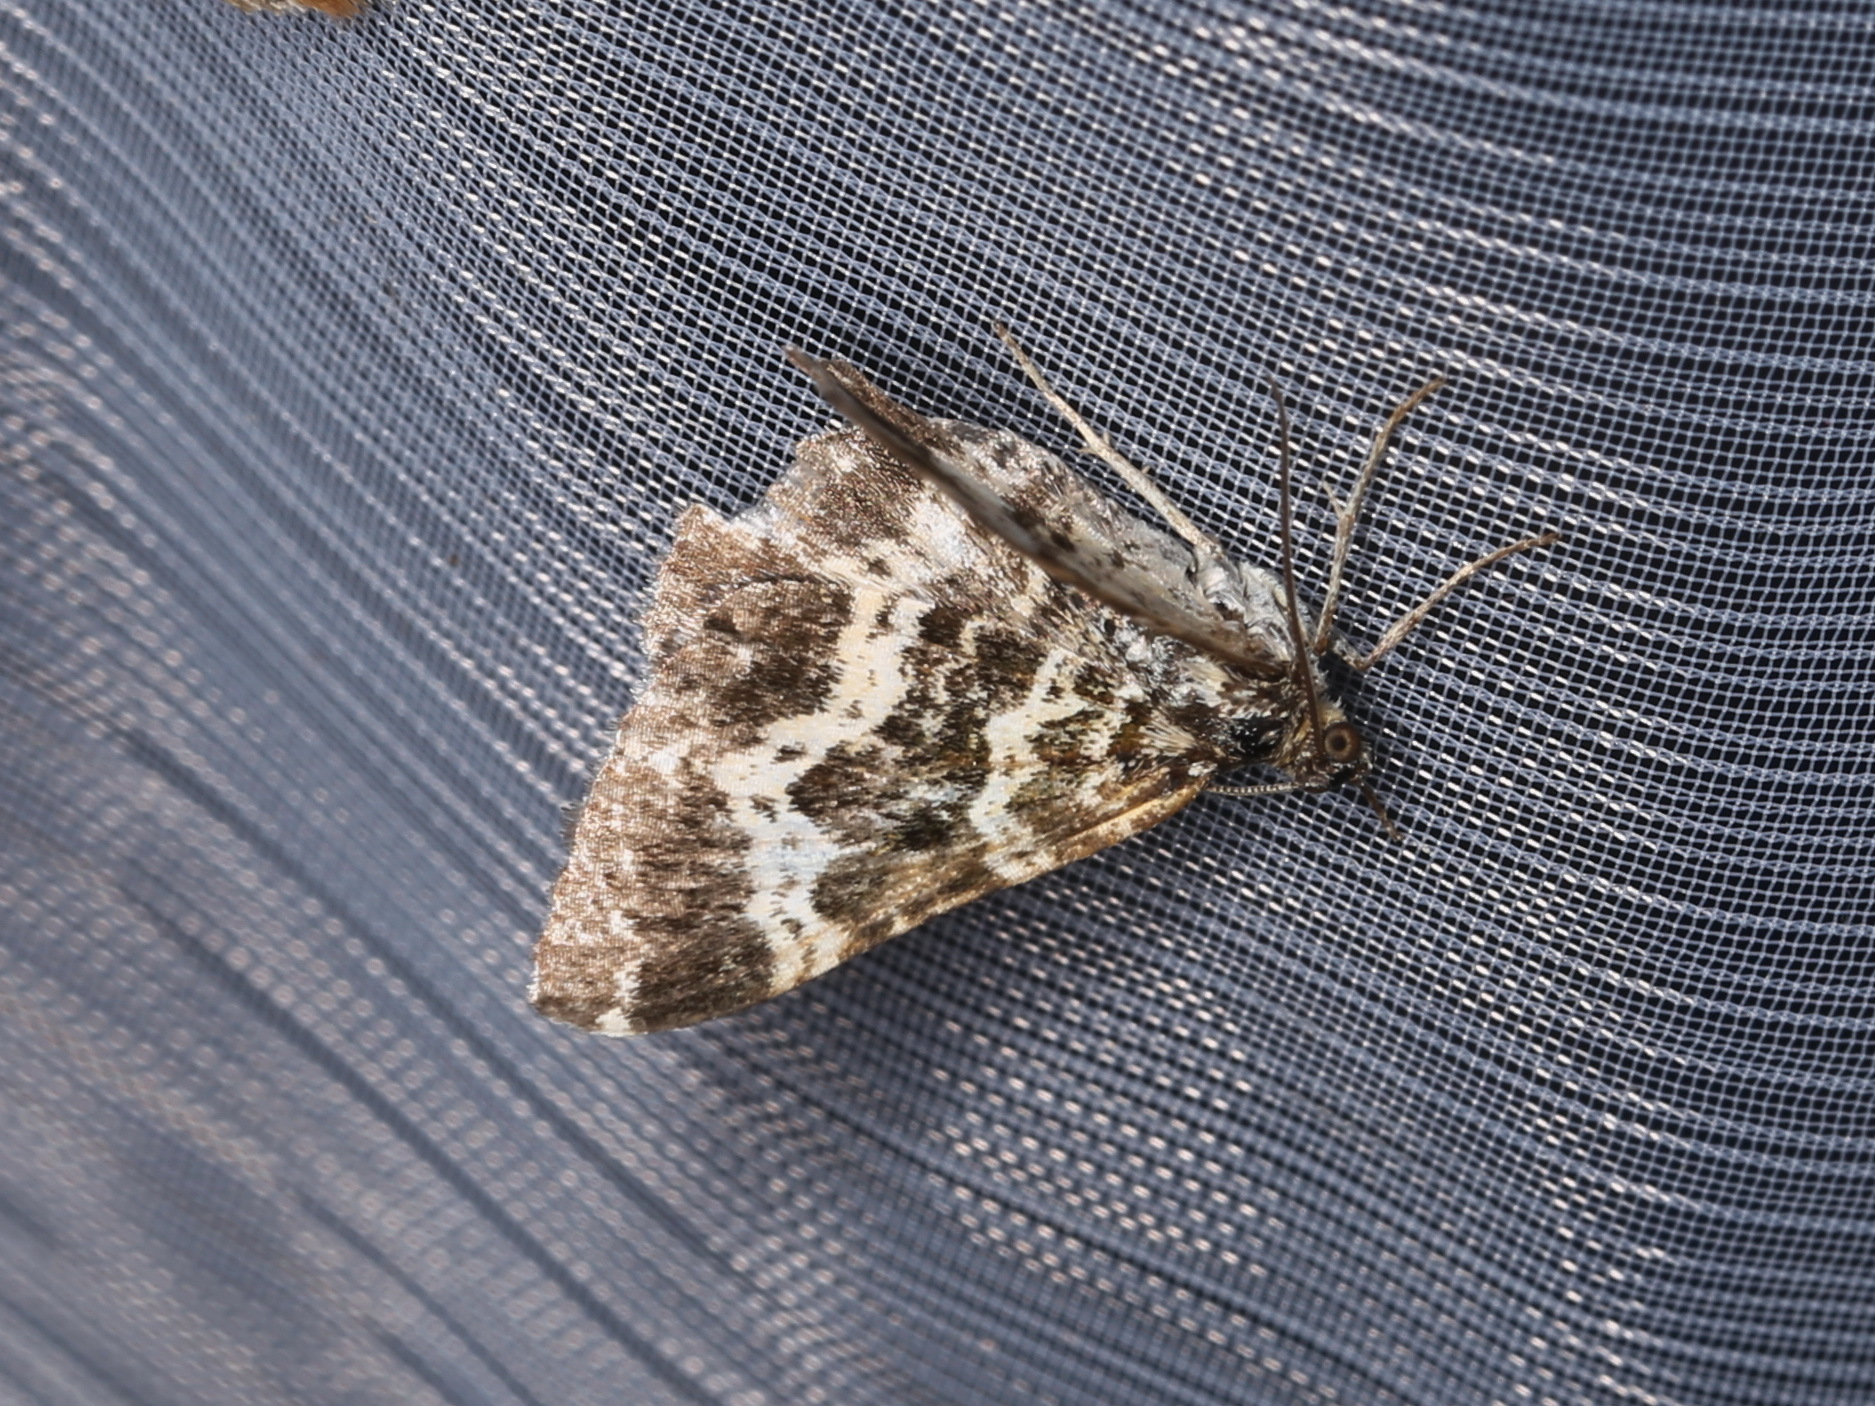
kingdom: Animalia
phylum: Arthropoda
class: Insecta
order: Lepidoptera
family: Geometridae
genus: Epirrhoe
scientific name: Epirrhoe tristata
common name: Small argent & sable
